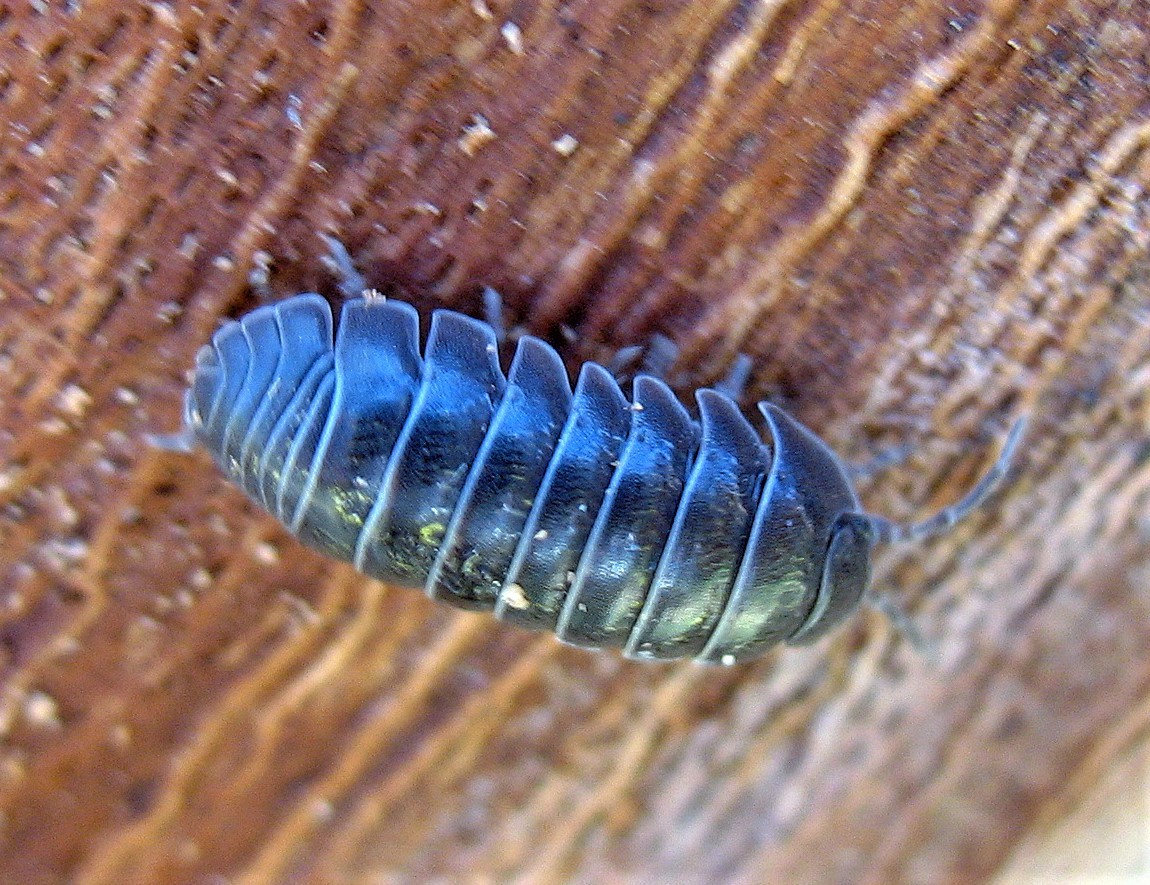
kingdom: Animalia
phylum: Arthropoda
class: Malacostraca
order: Isopoda
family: Armadillidiidae
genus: Armadillidium
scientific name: Armadillidium vulgare
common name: Common pill woodlouse
